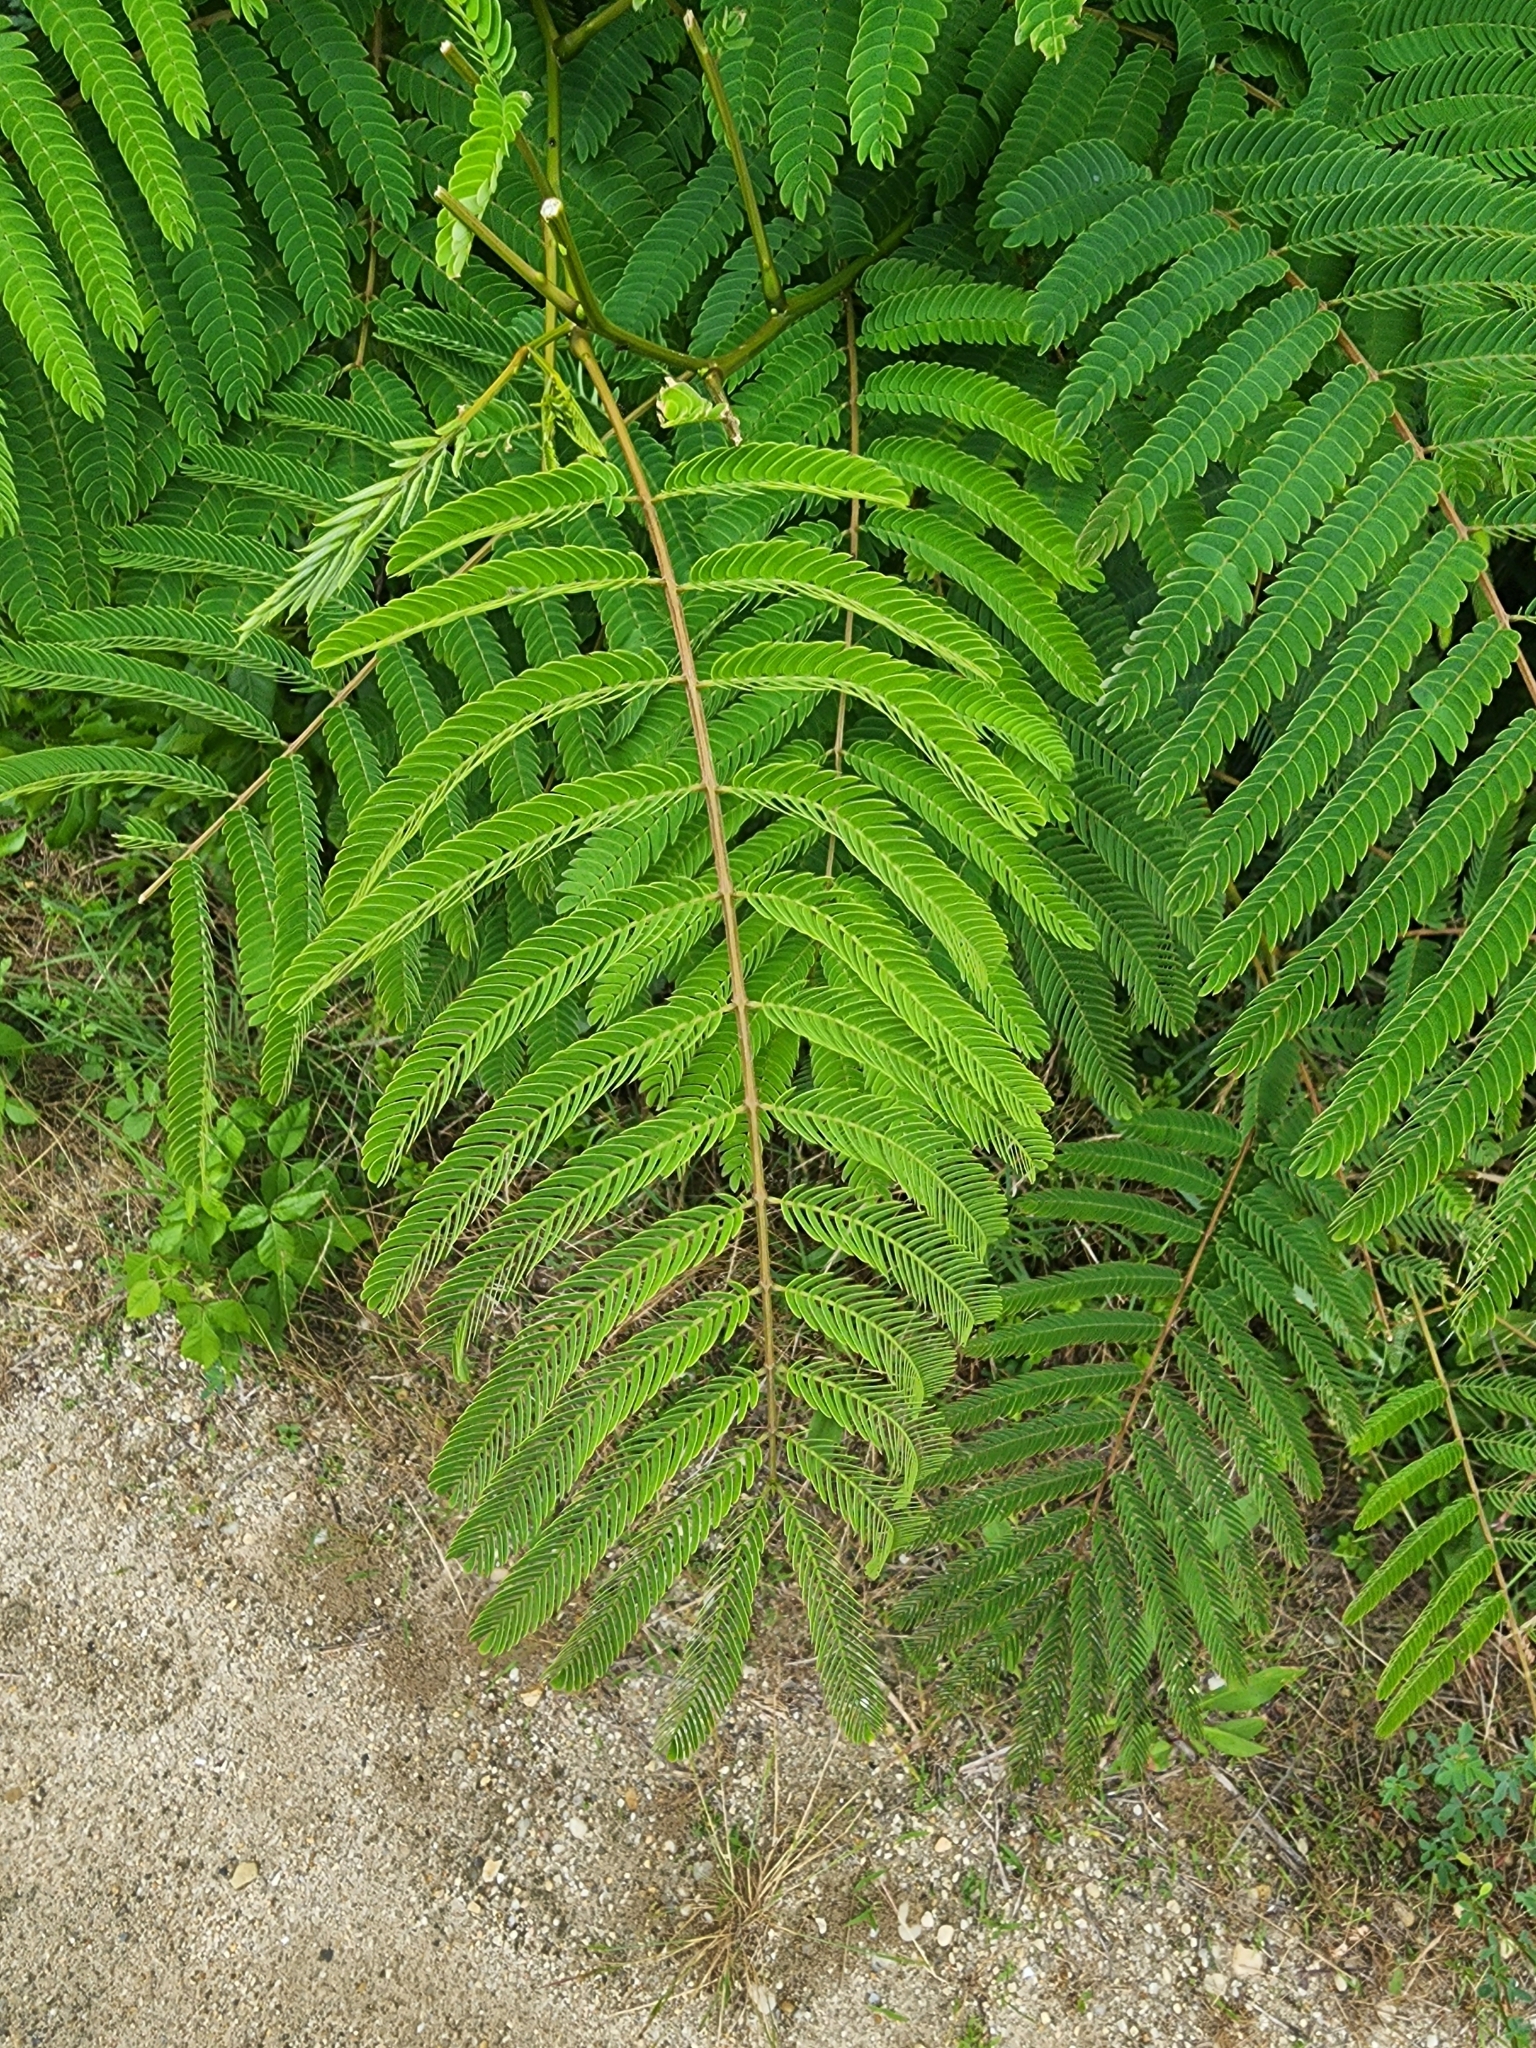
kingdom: Plantae
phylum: Tracheophyta
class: Magnoliopsida
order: Fabales
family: Fabaceae
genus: Albizia
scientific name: Albizia julibrissin
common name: Silktree
